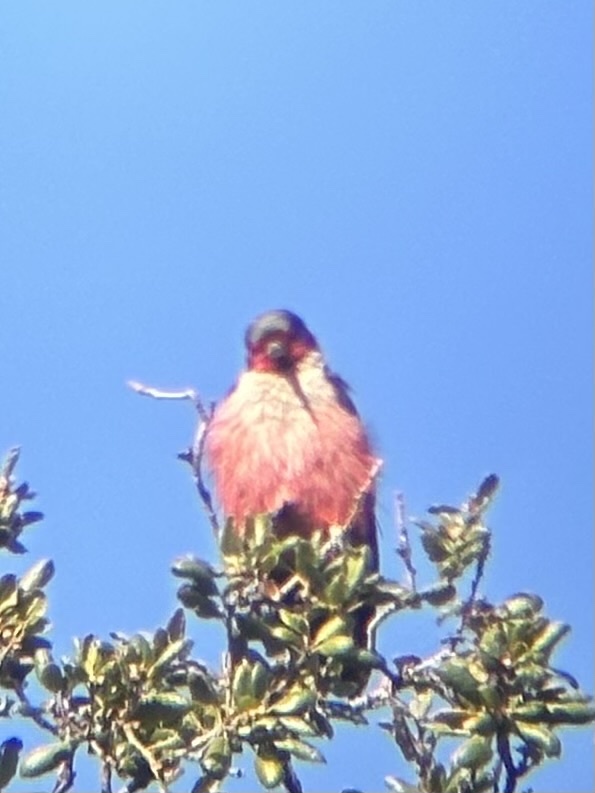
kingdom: Animalia
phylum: Chordata
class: Aves
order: Piciformes
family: Picidae
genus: Melanerpes
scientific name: Melanerpes lewis
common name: Lewis's woodpecker
